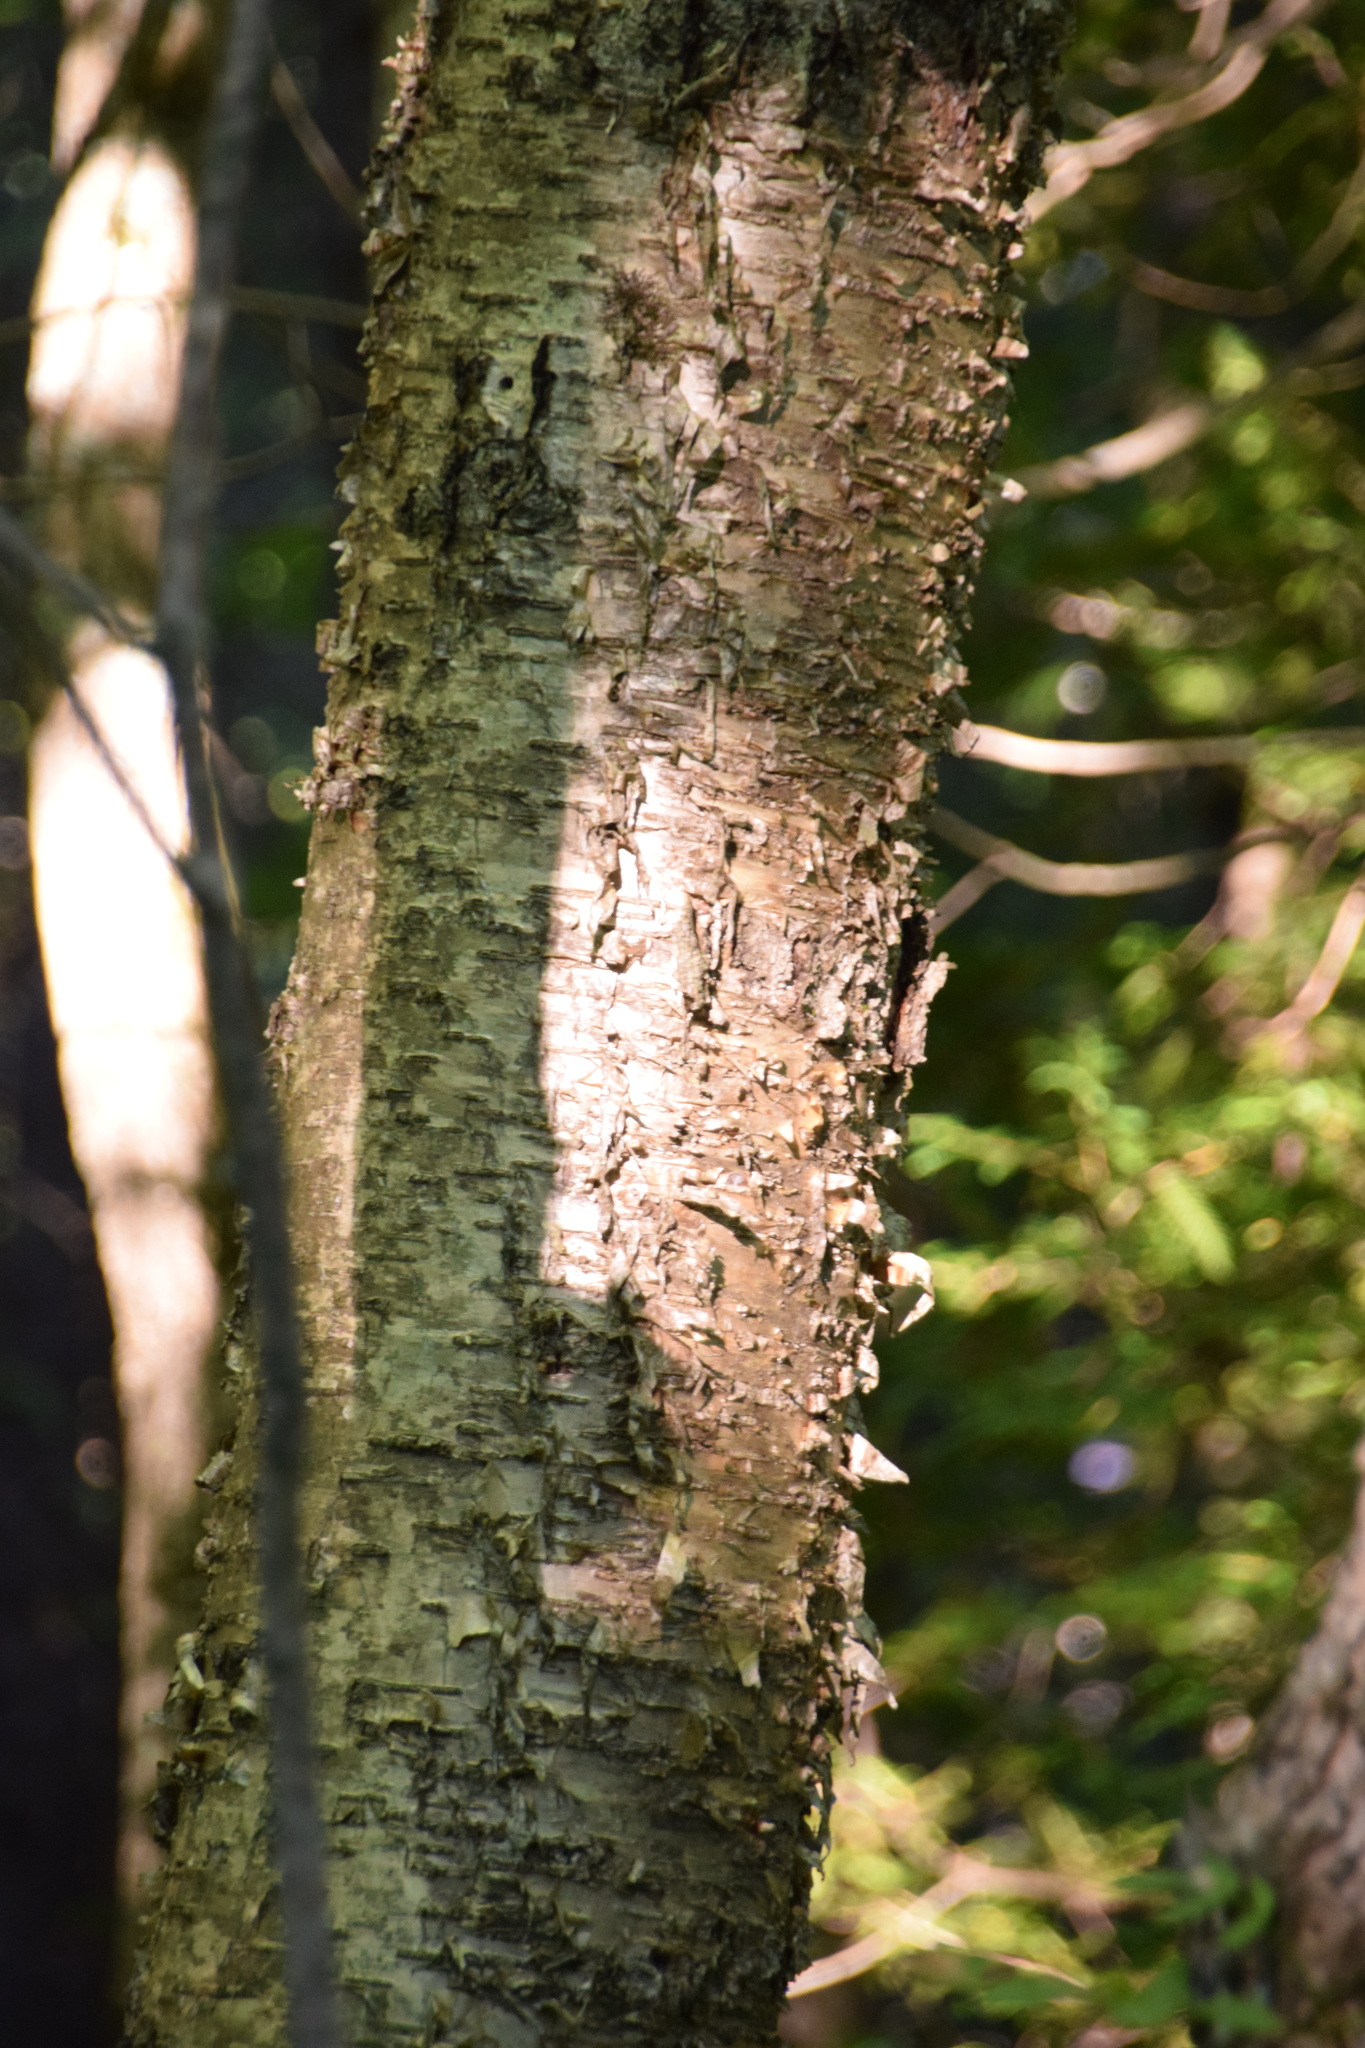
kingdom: Plantae
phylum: Tracheophyta
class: Magnoliopsida
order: Fagales
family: Betulaceae
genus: Betula
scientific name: Betula alleghaniensis
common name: Yellow birch
